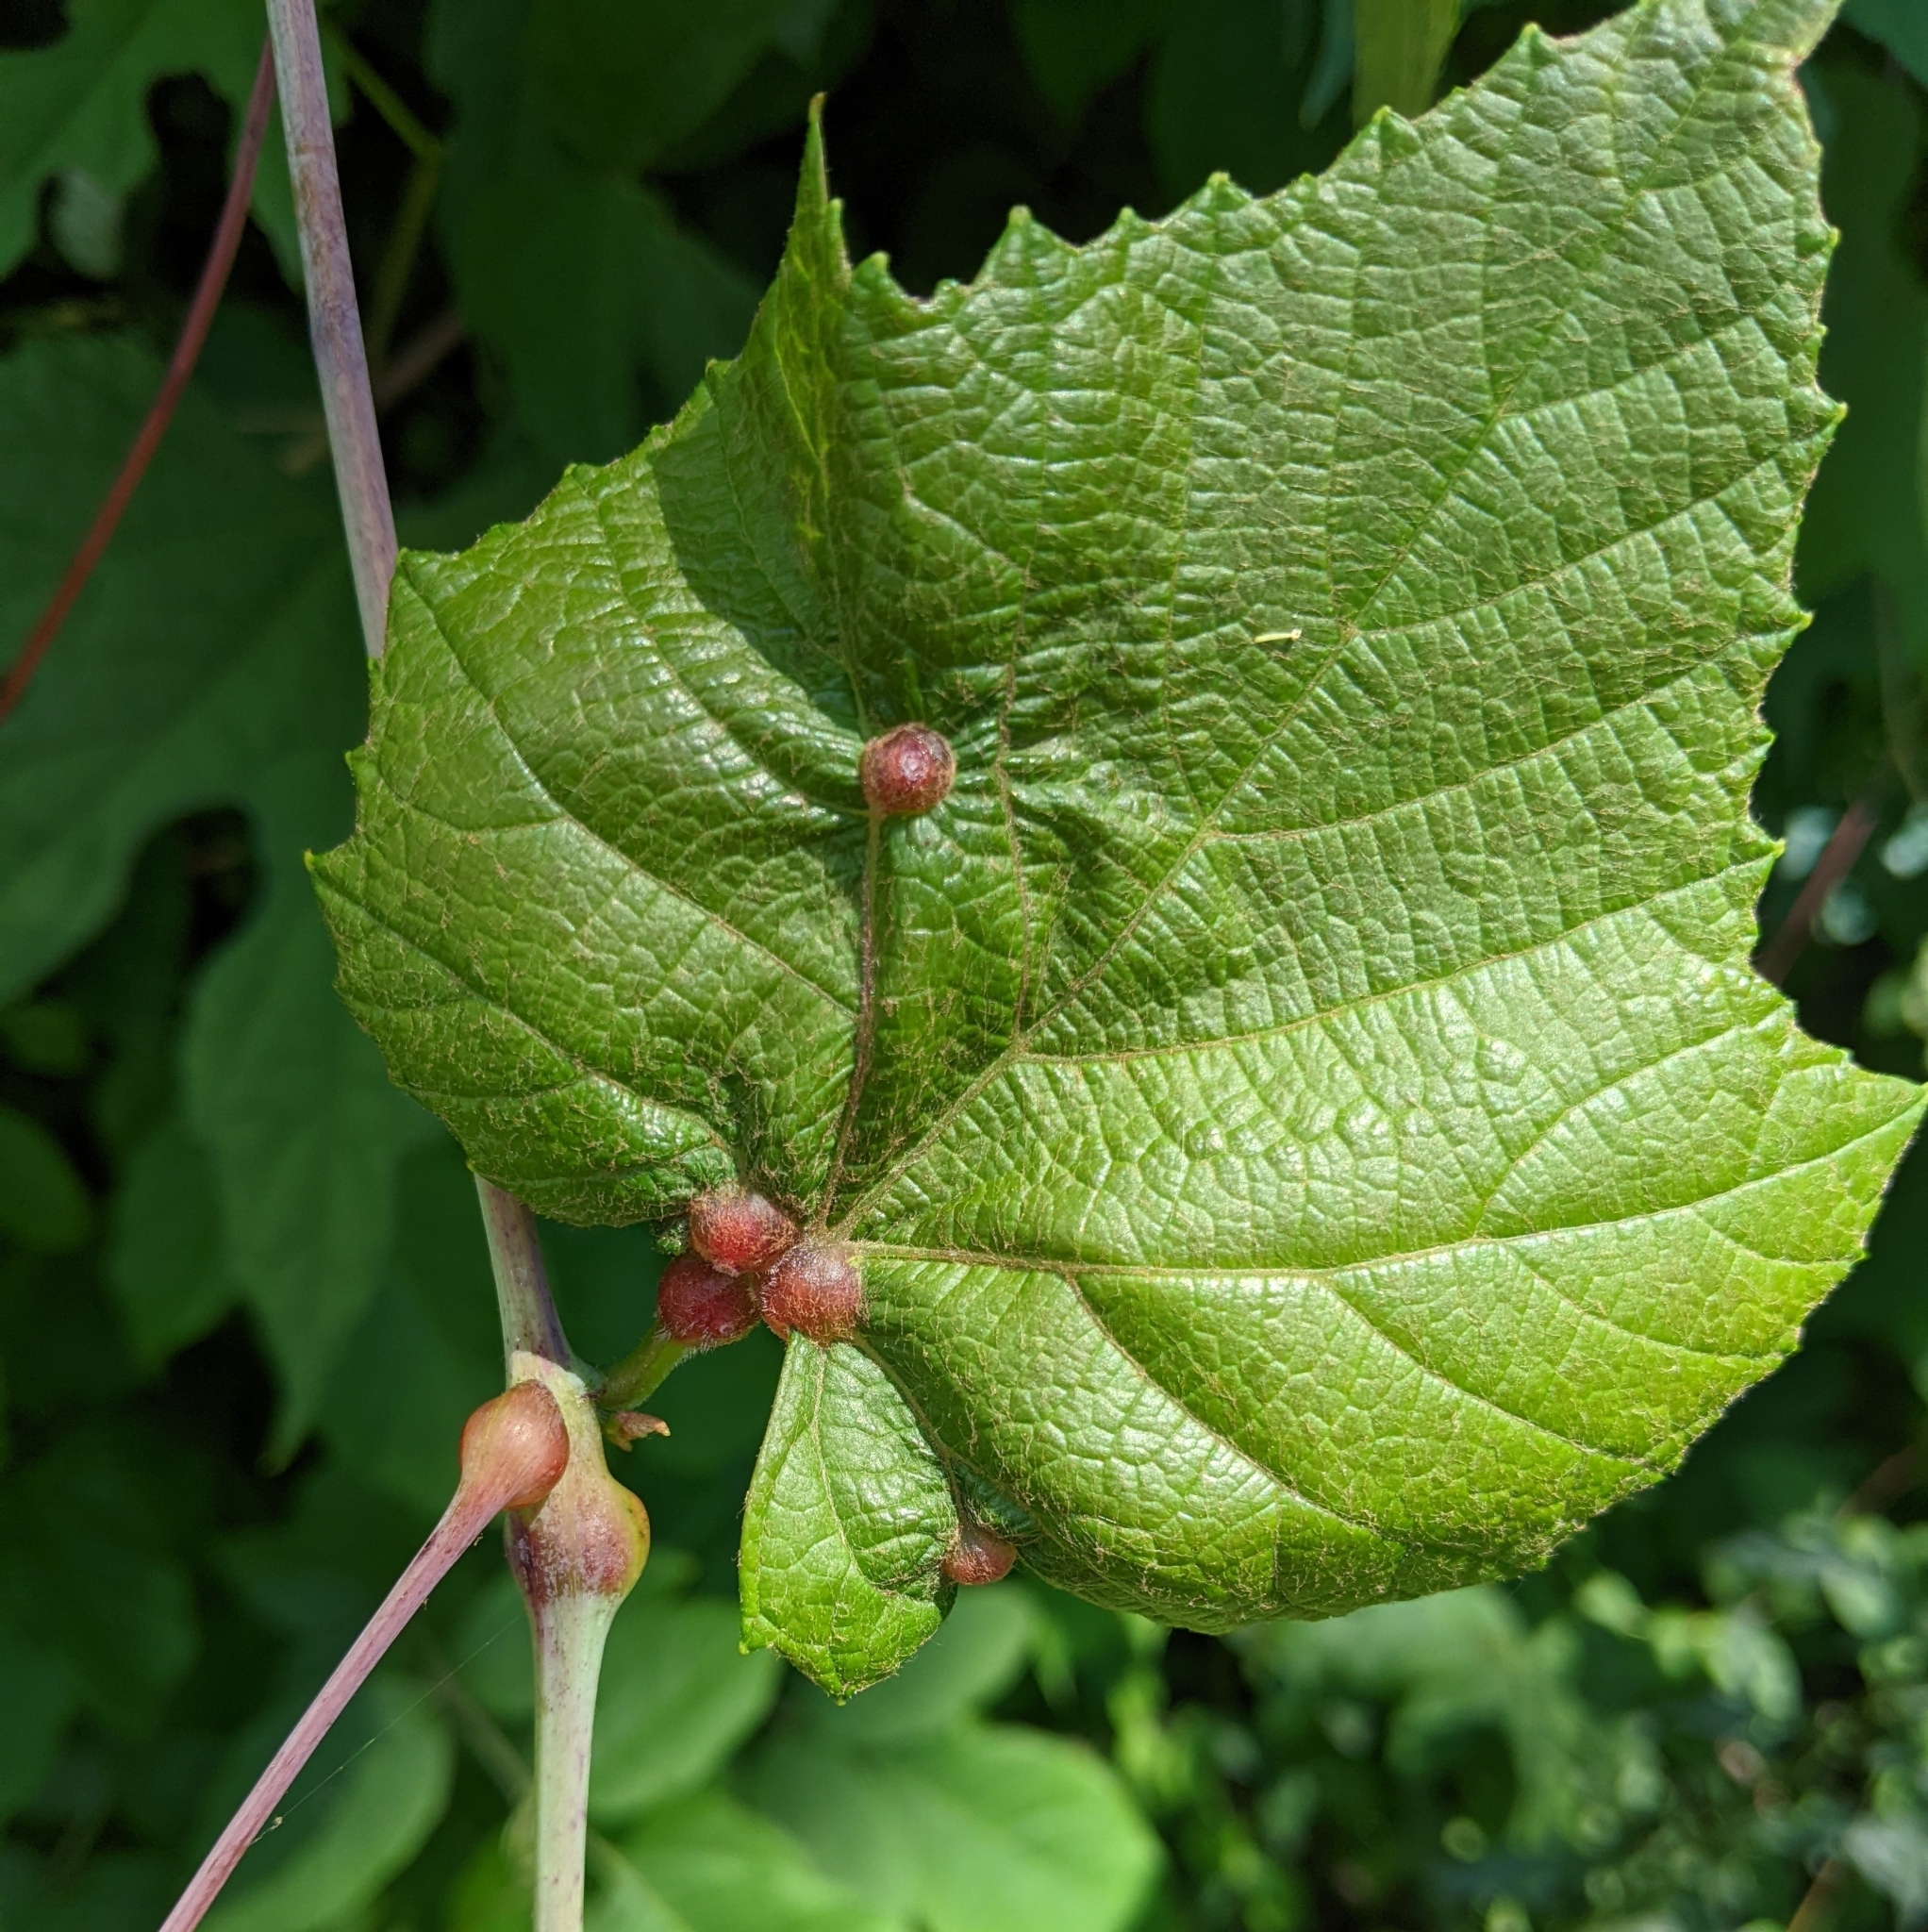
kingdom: Animalia
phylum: Arthropoda
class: Insecta
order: Diptera
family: Cecidomyiidae
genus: Vitisiella
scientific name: Vitisiella brevicauda
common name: Grape tumid gallmaker midge
